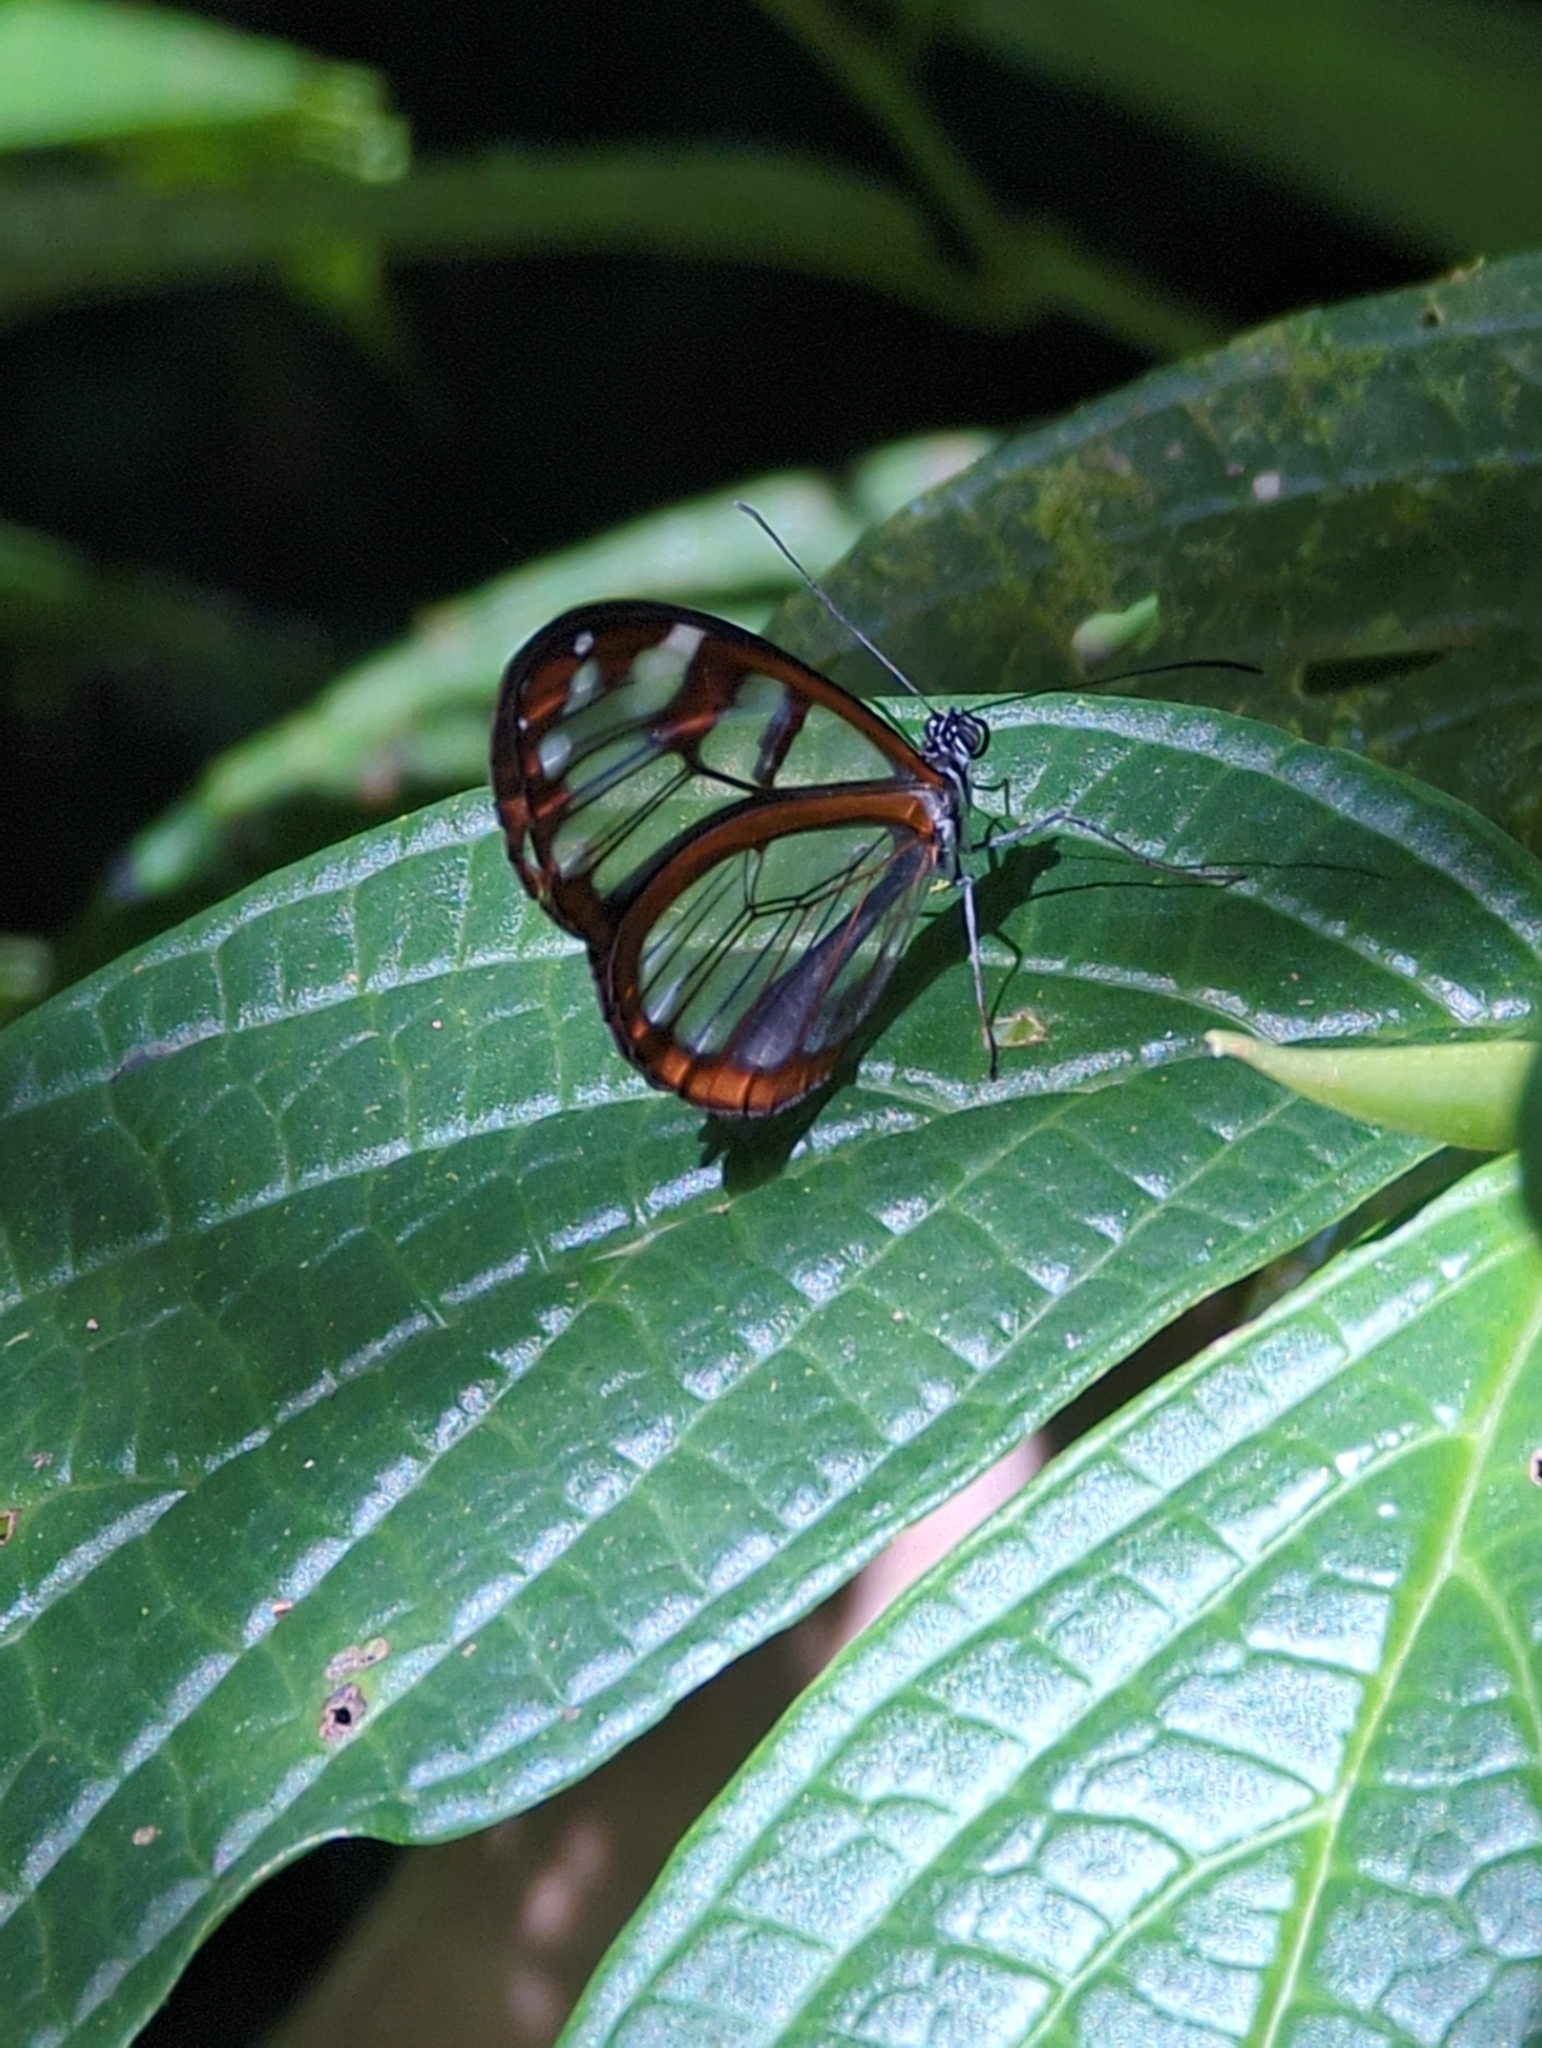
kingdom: Animalia
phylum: Arthropoda
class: Insecta
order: Lepidoptera
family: Nymphalidae
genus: Oleria
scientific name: Oleria vicina
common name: Vicina clearwing
